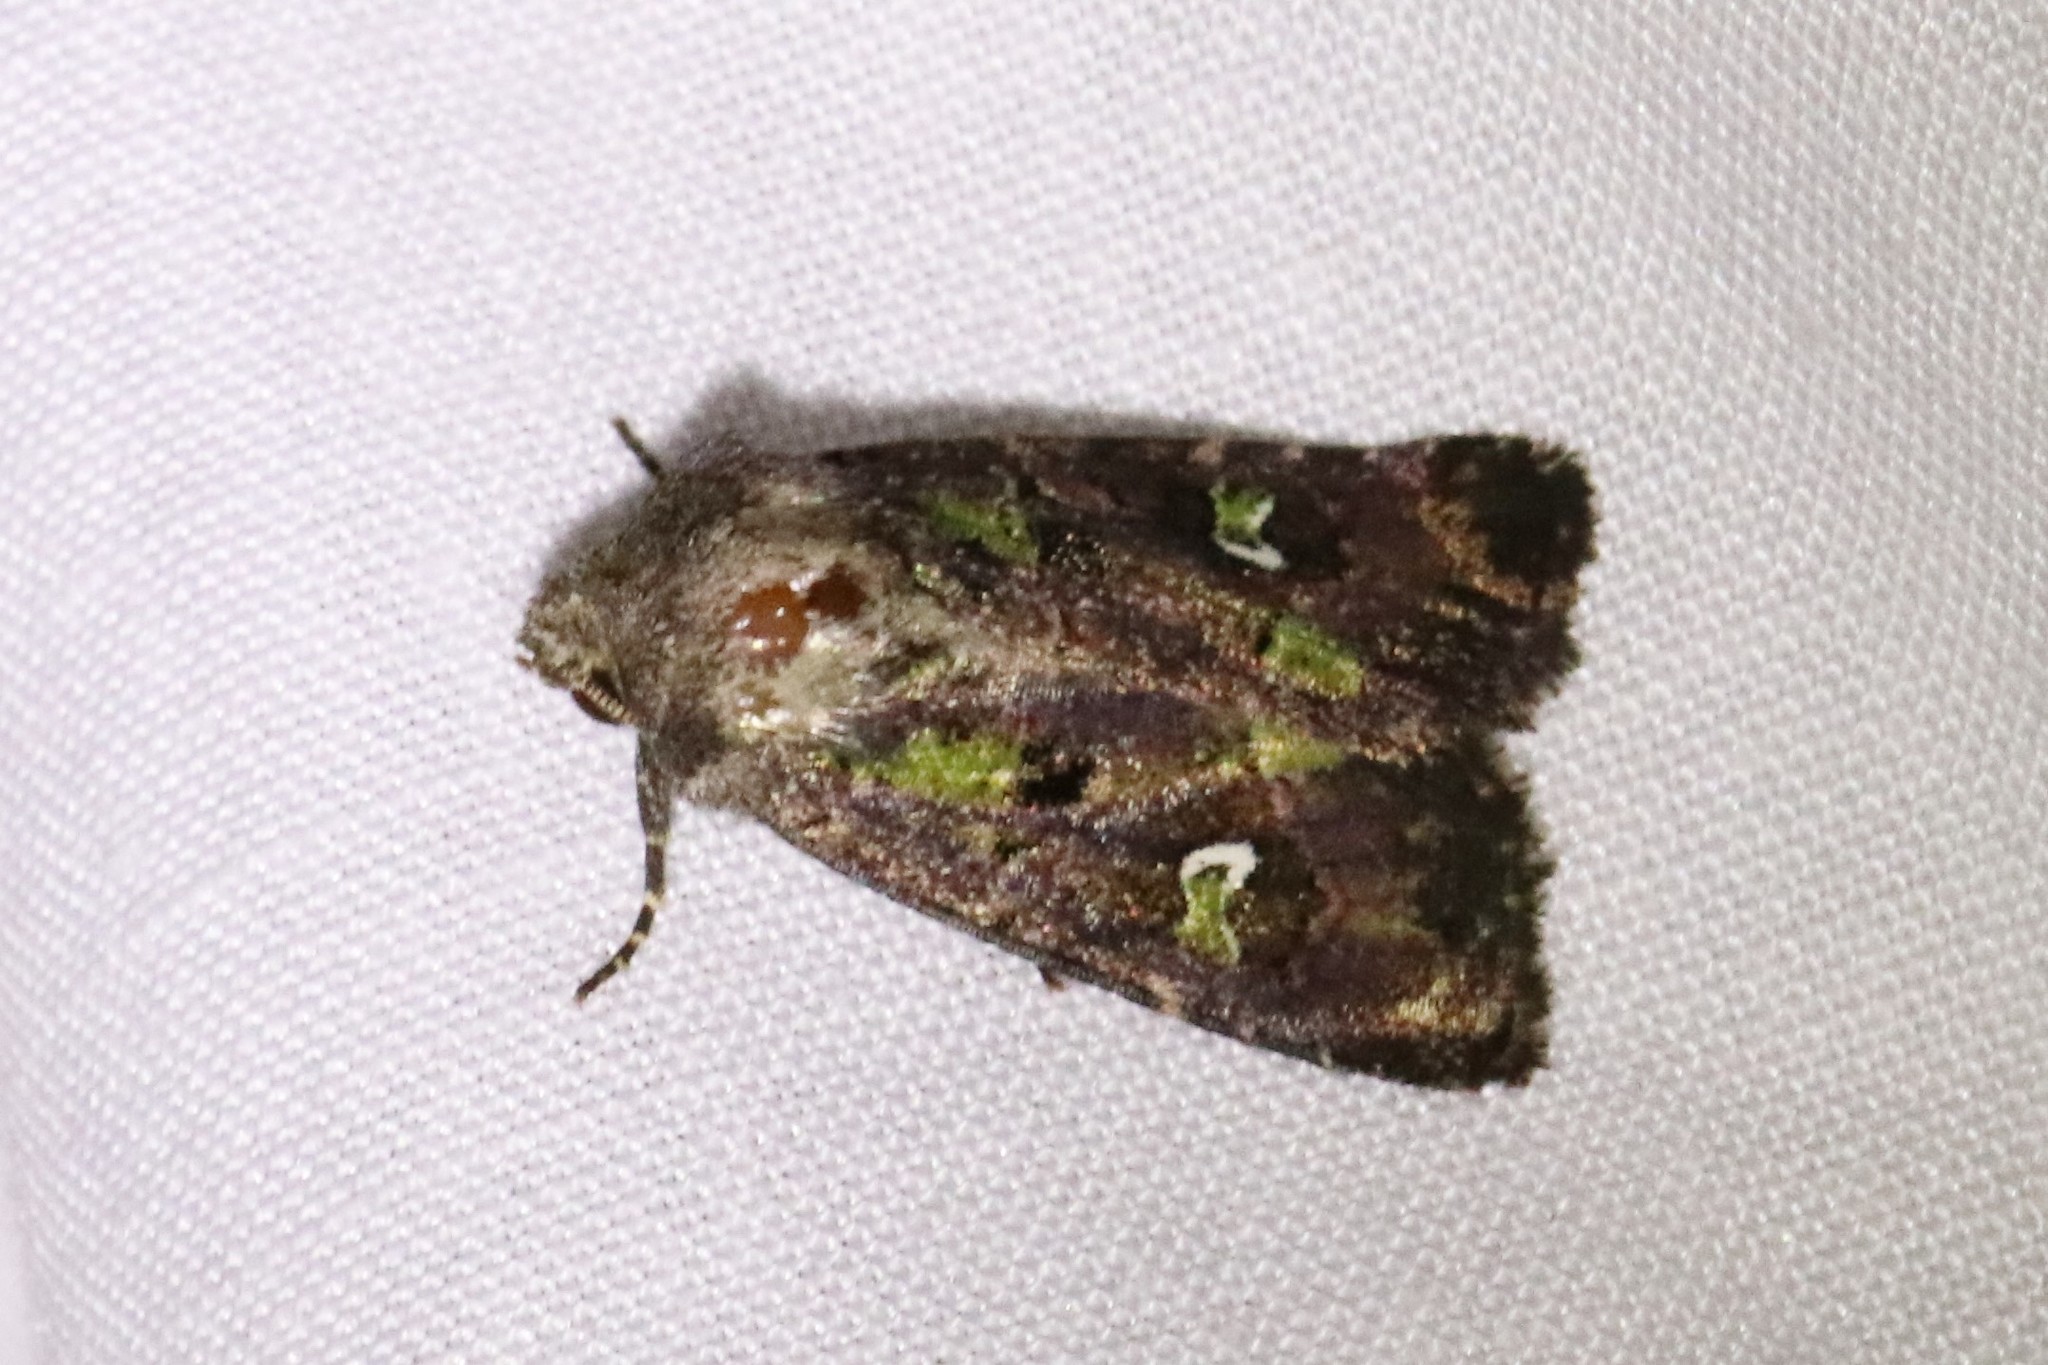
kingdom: Animalia
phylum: Arthropoda
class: Insecta
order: Lepidoptera
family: Noctuidae
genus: Lacinipolia
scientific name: Lacinipolia renigera
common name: Kidney-spotted minor
